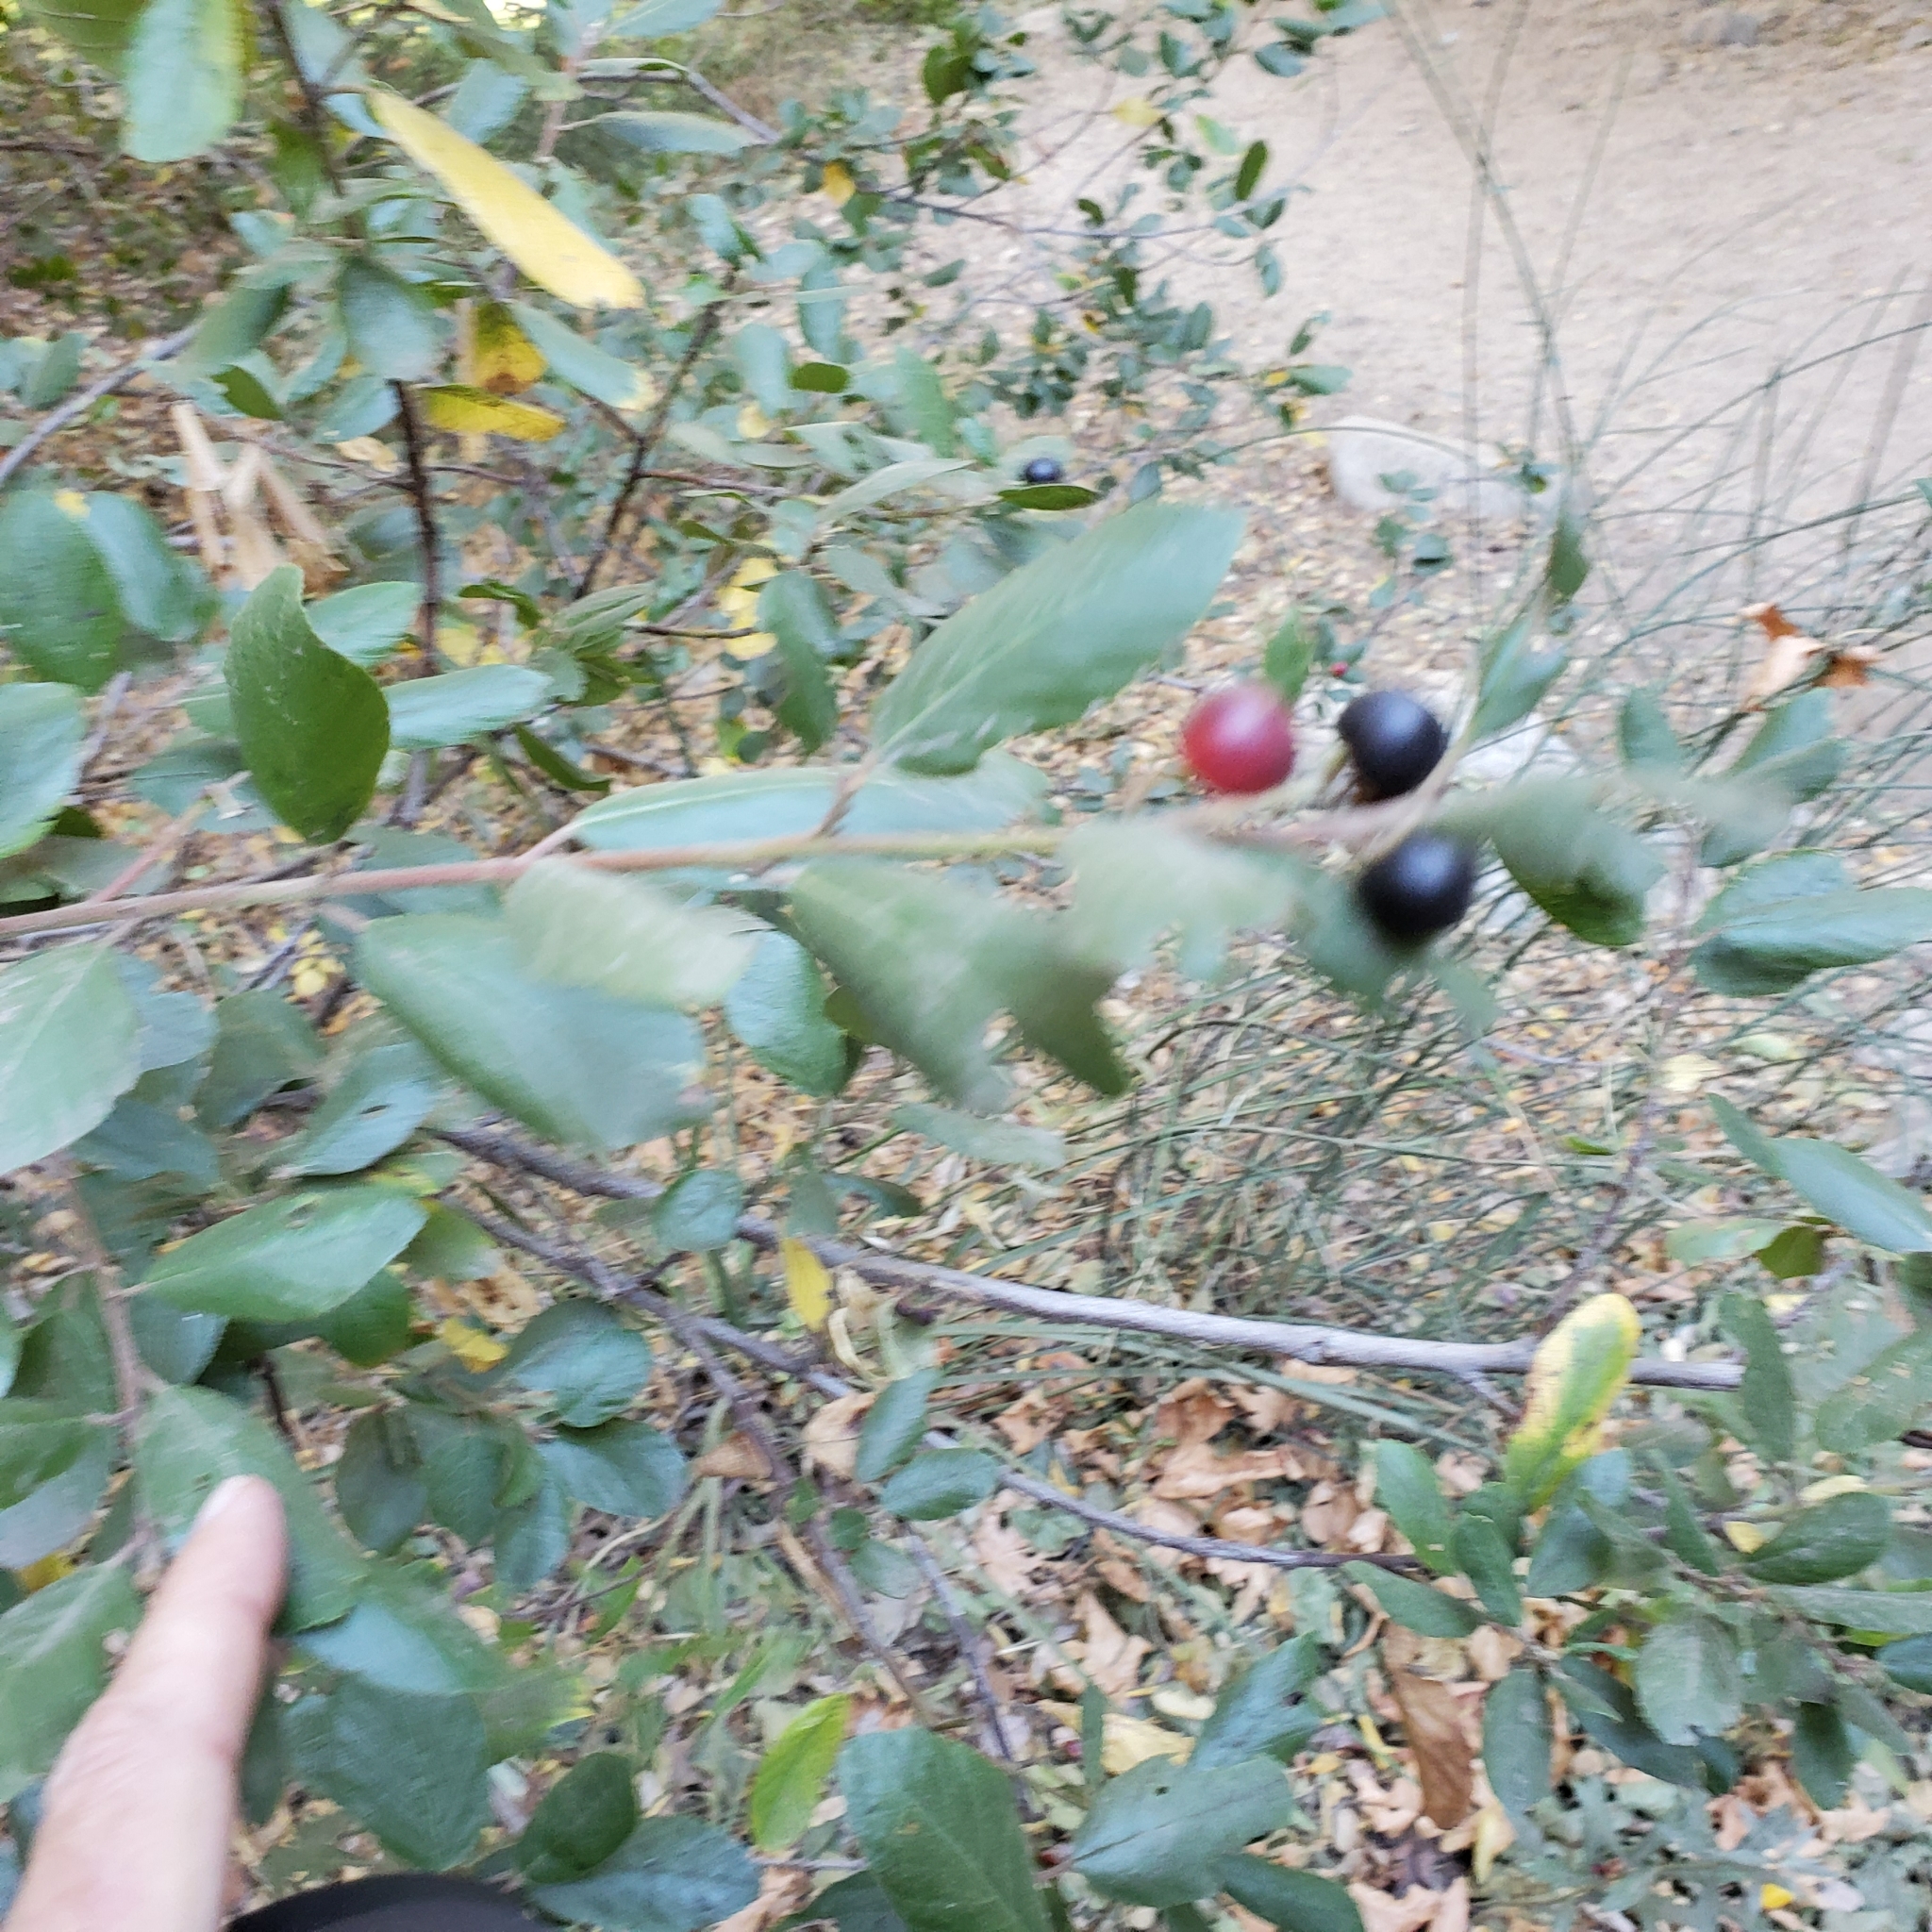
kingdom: Plantae
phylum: Tracheophyta
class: Magnoliopsida
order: Rosales
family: Rhamnaceae
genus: Frangula
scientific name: Frangula californica
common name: California buckthorn
